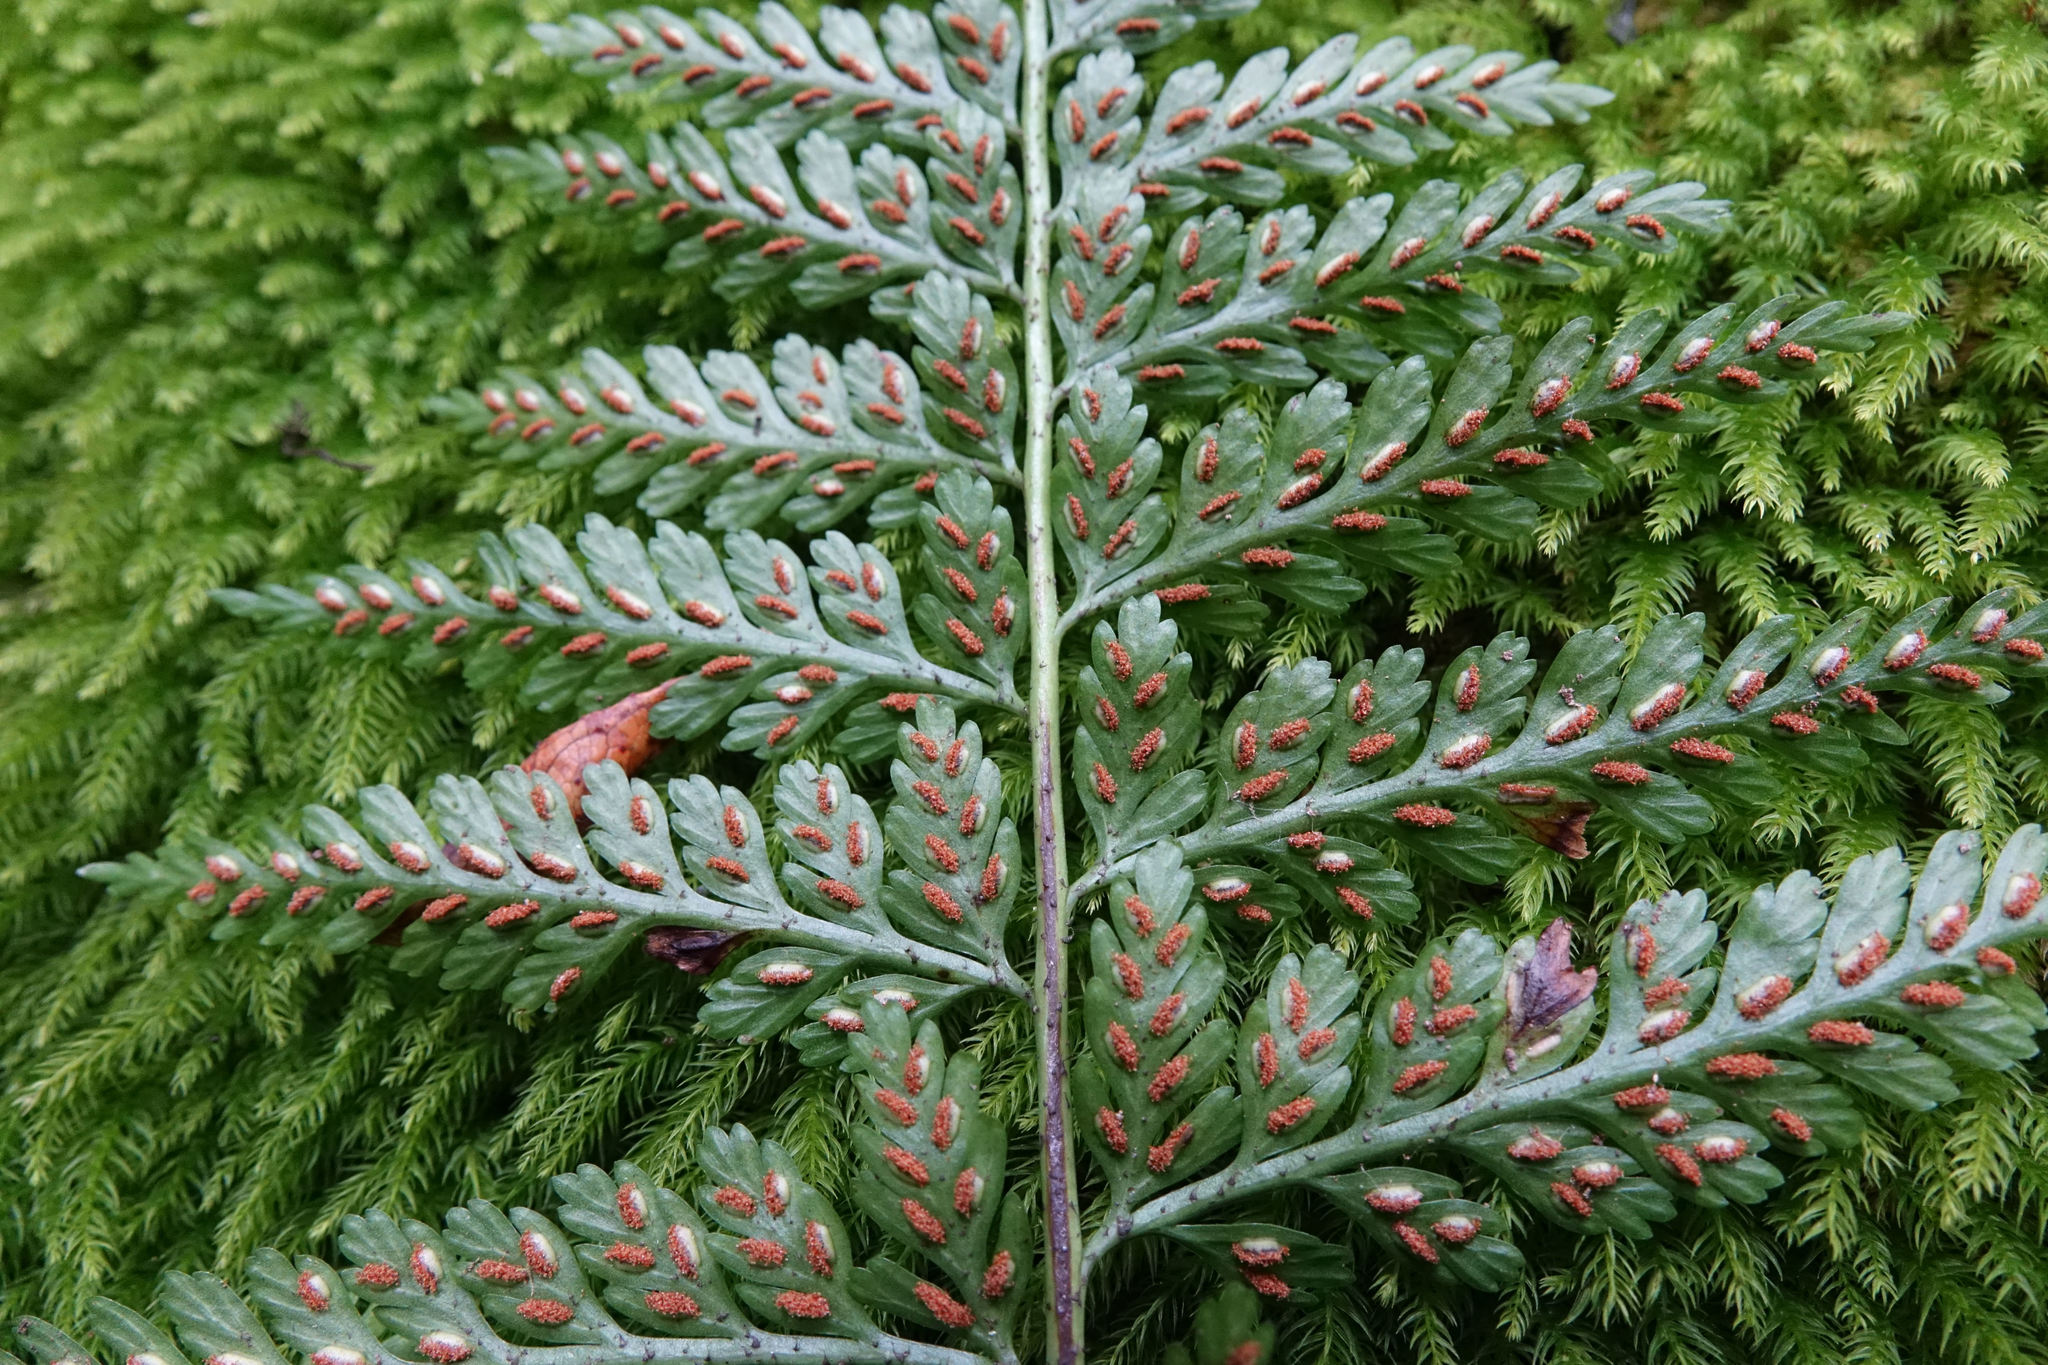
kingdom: Plantae
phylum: Tracheophyta
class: Polypodiopsida
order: Polypodiales
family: Aspleniaceae
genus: Asplenium
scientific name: Asplenium
